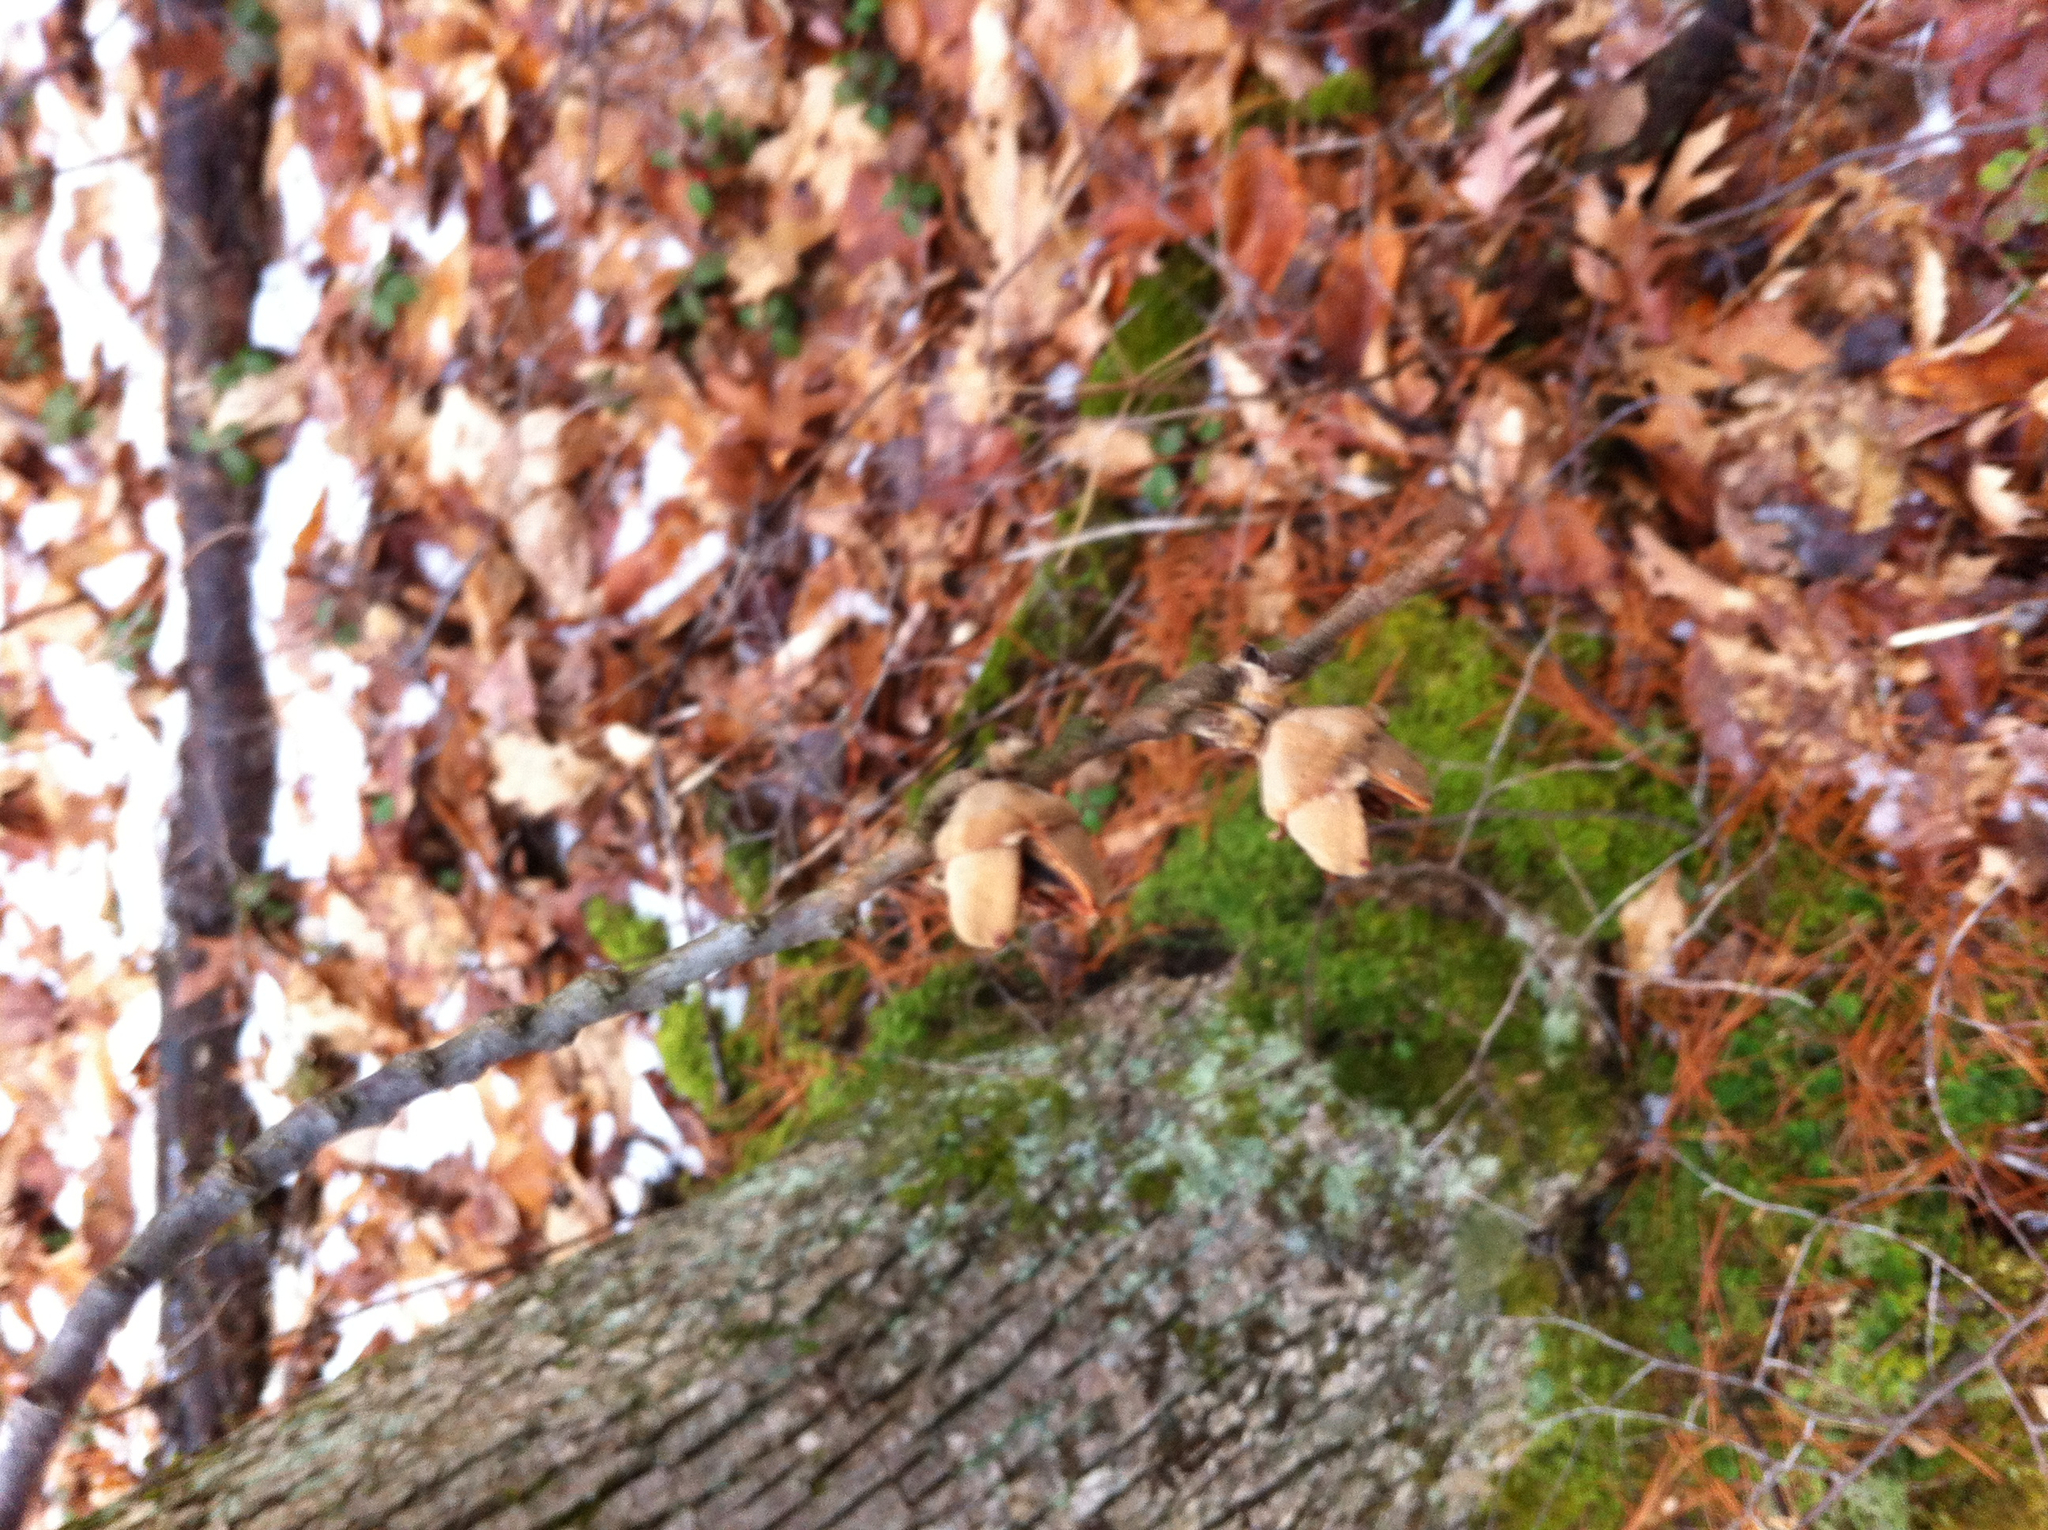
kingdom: Plantae
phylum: Tracheophyta
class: Magnoliopsida
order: Saxifragales
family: Hamamelidaceae
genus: Hamamelis
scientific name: Hamamelis virginiana
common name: Witch-hazel
